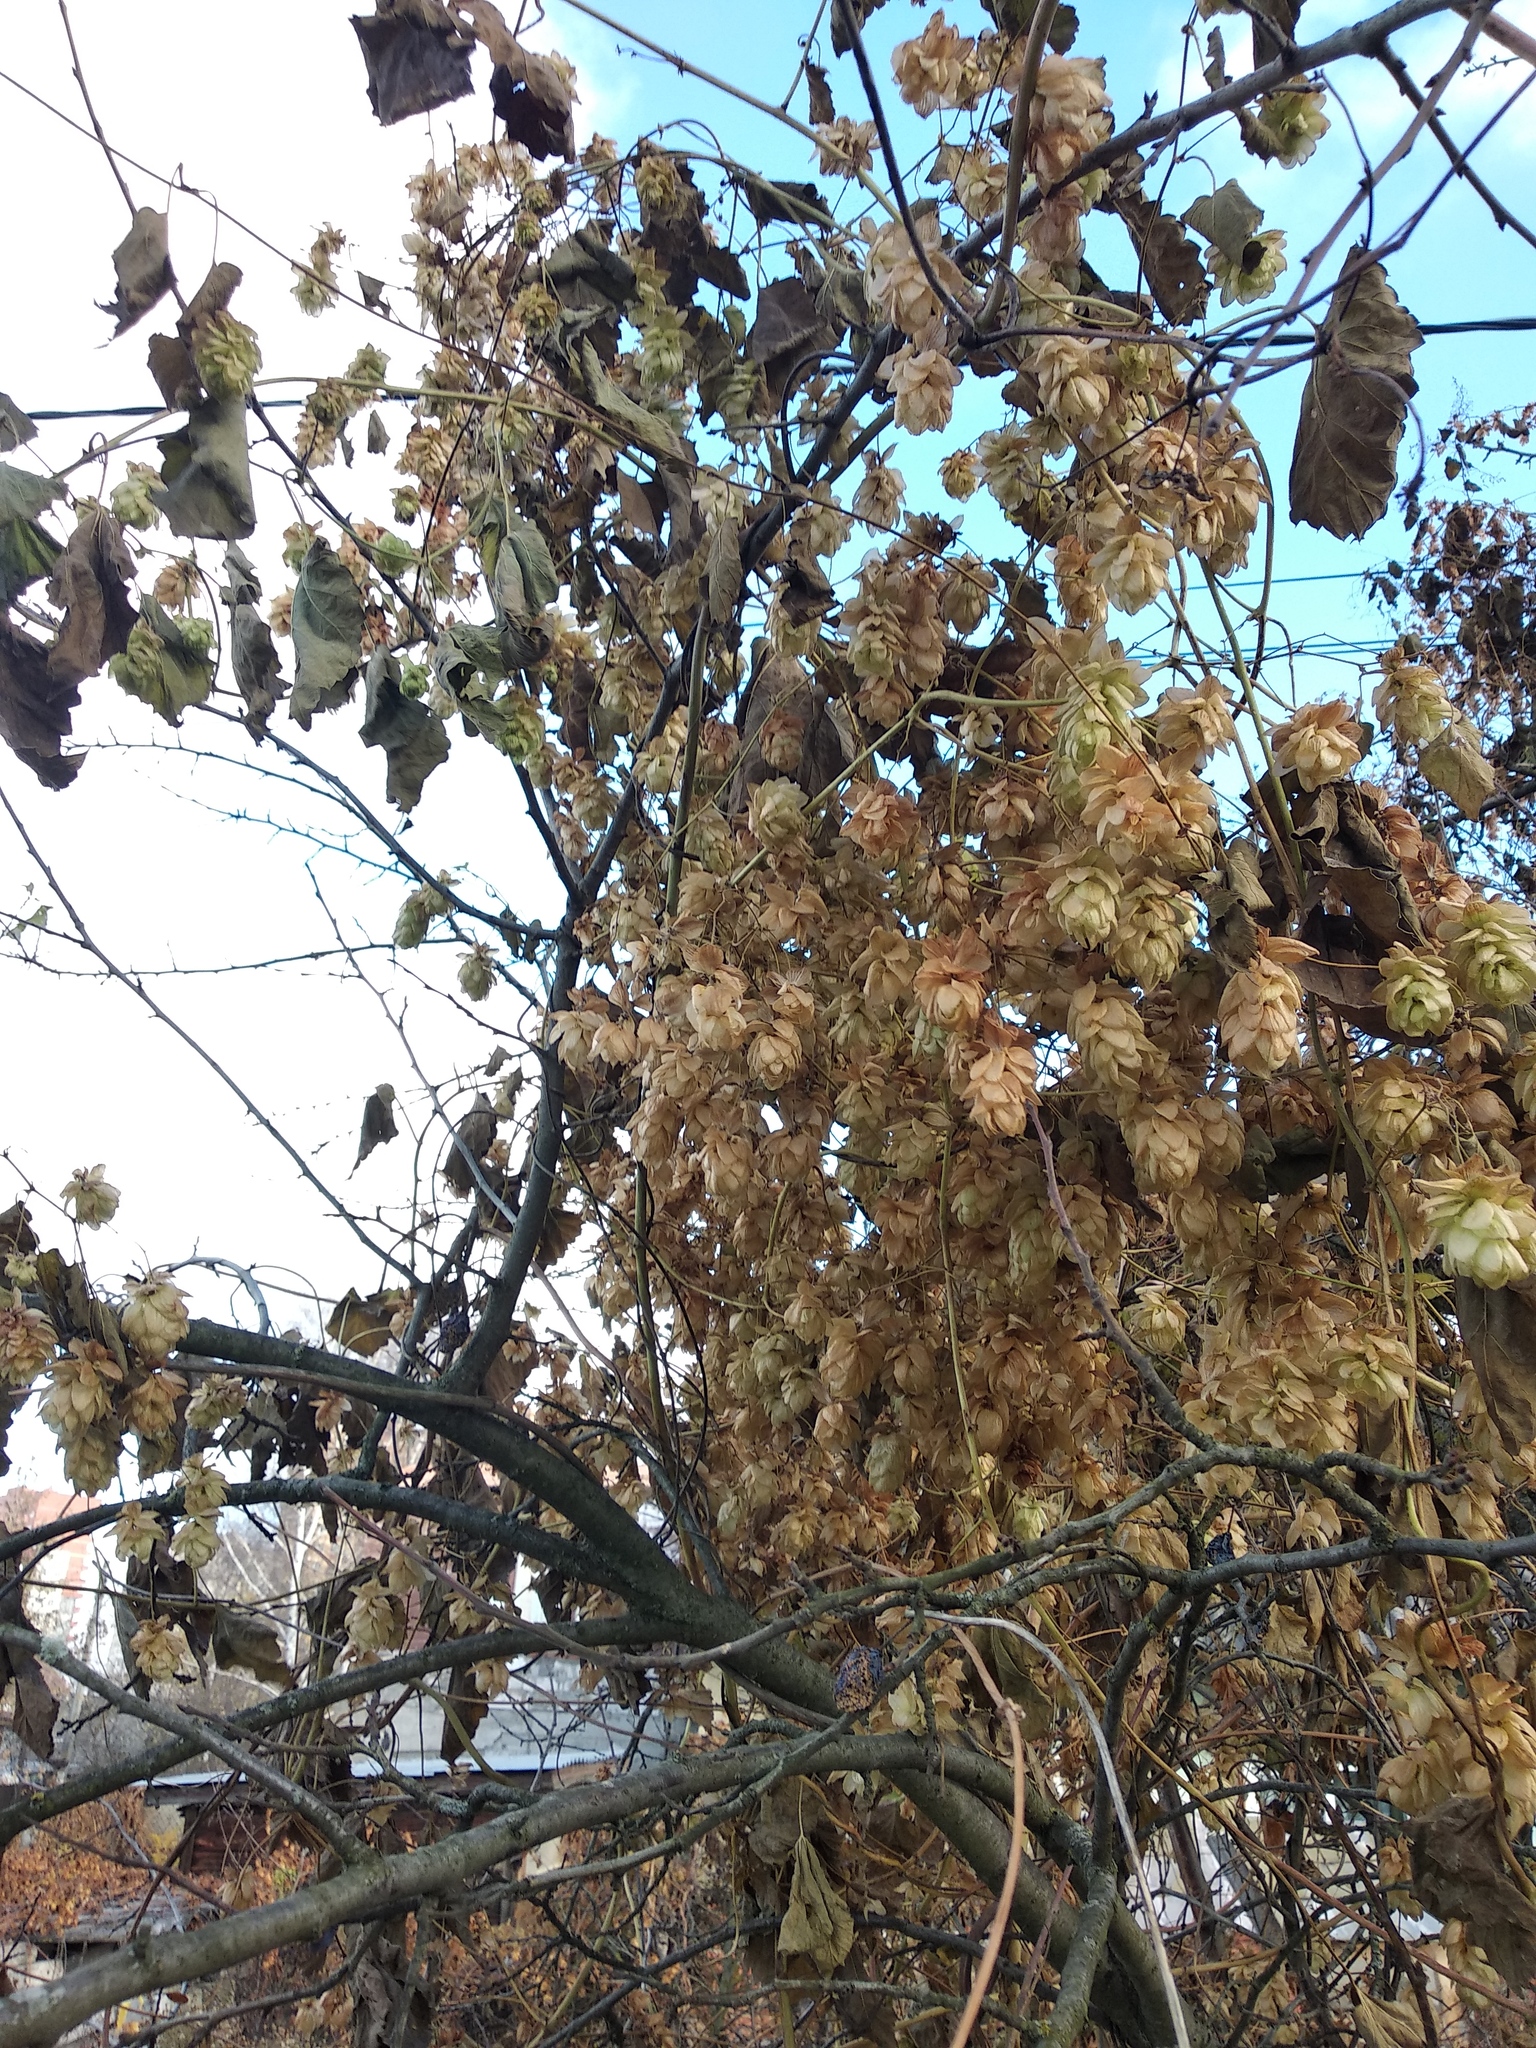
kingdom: Plantae
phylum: Tracheophyta
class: Magnoliopsida
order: Rosales
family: Cannabaceae
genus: Humulus
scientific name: Humulus lupulus
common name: Hop
